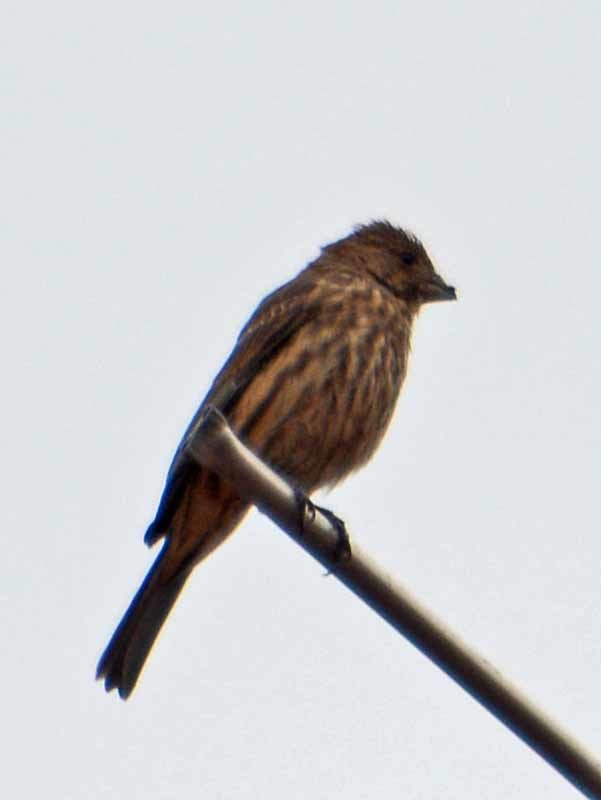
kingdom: Animalia
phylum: Chordata
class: Aves
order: Passeriformes
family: Fringillidae
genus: Haemorhous
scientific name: Haemorhous mexicanus
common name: House finch
